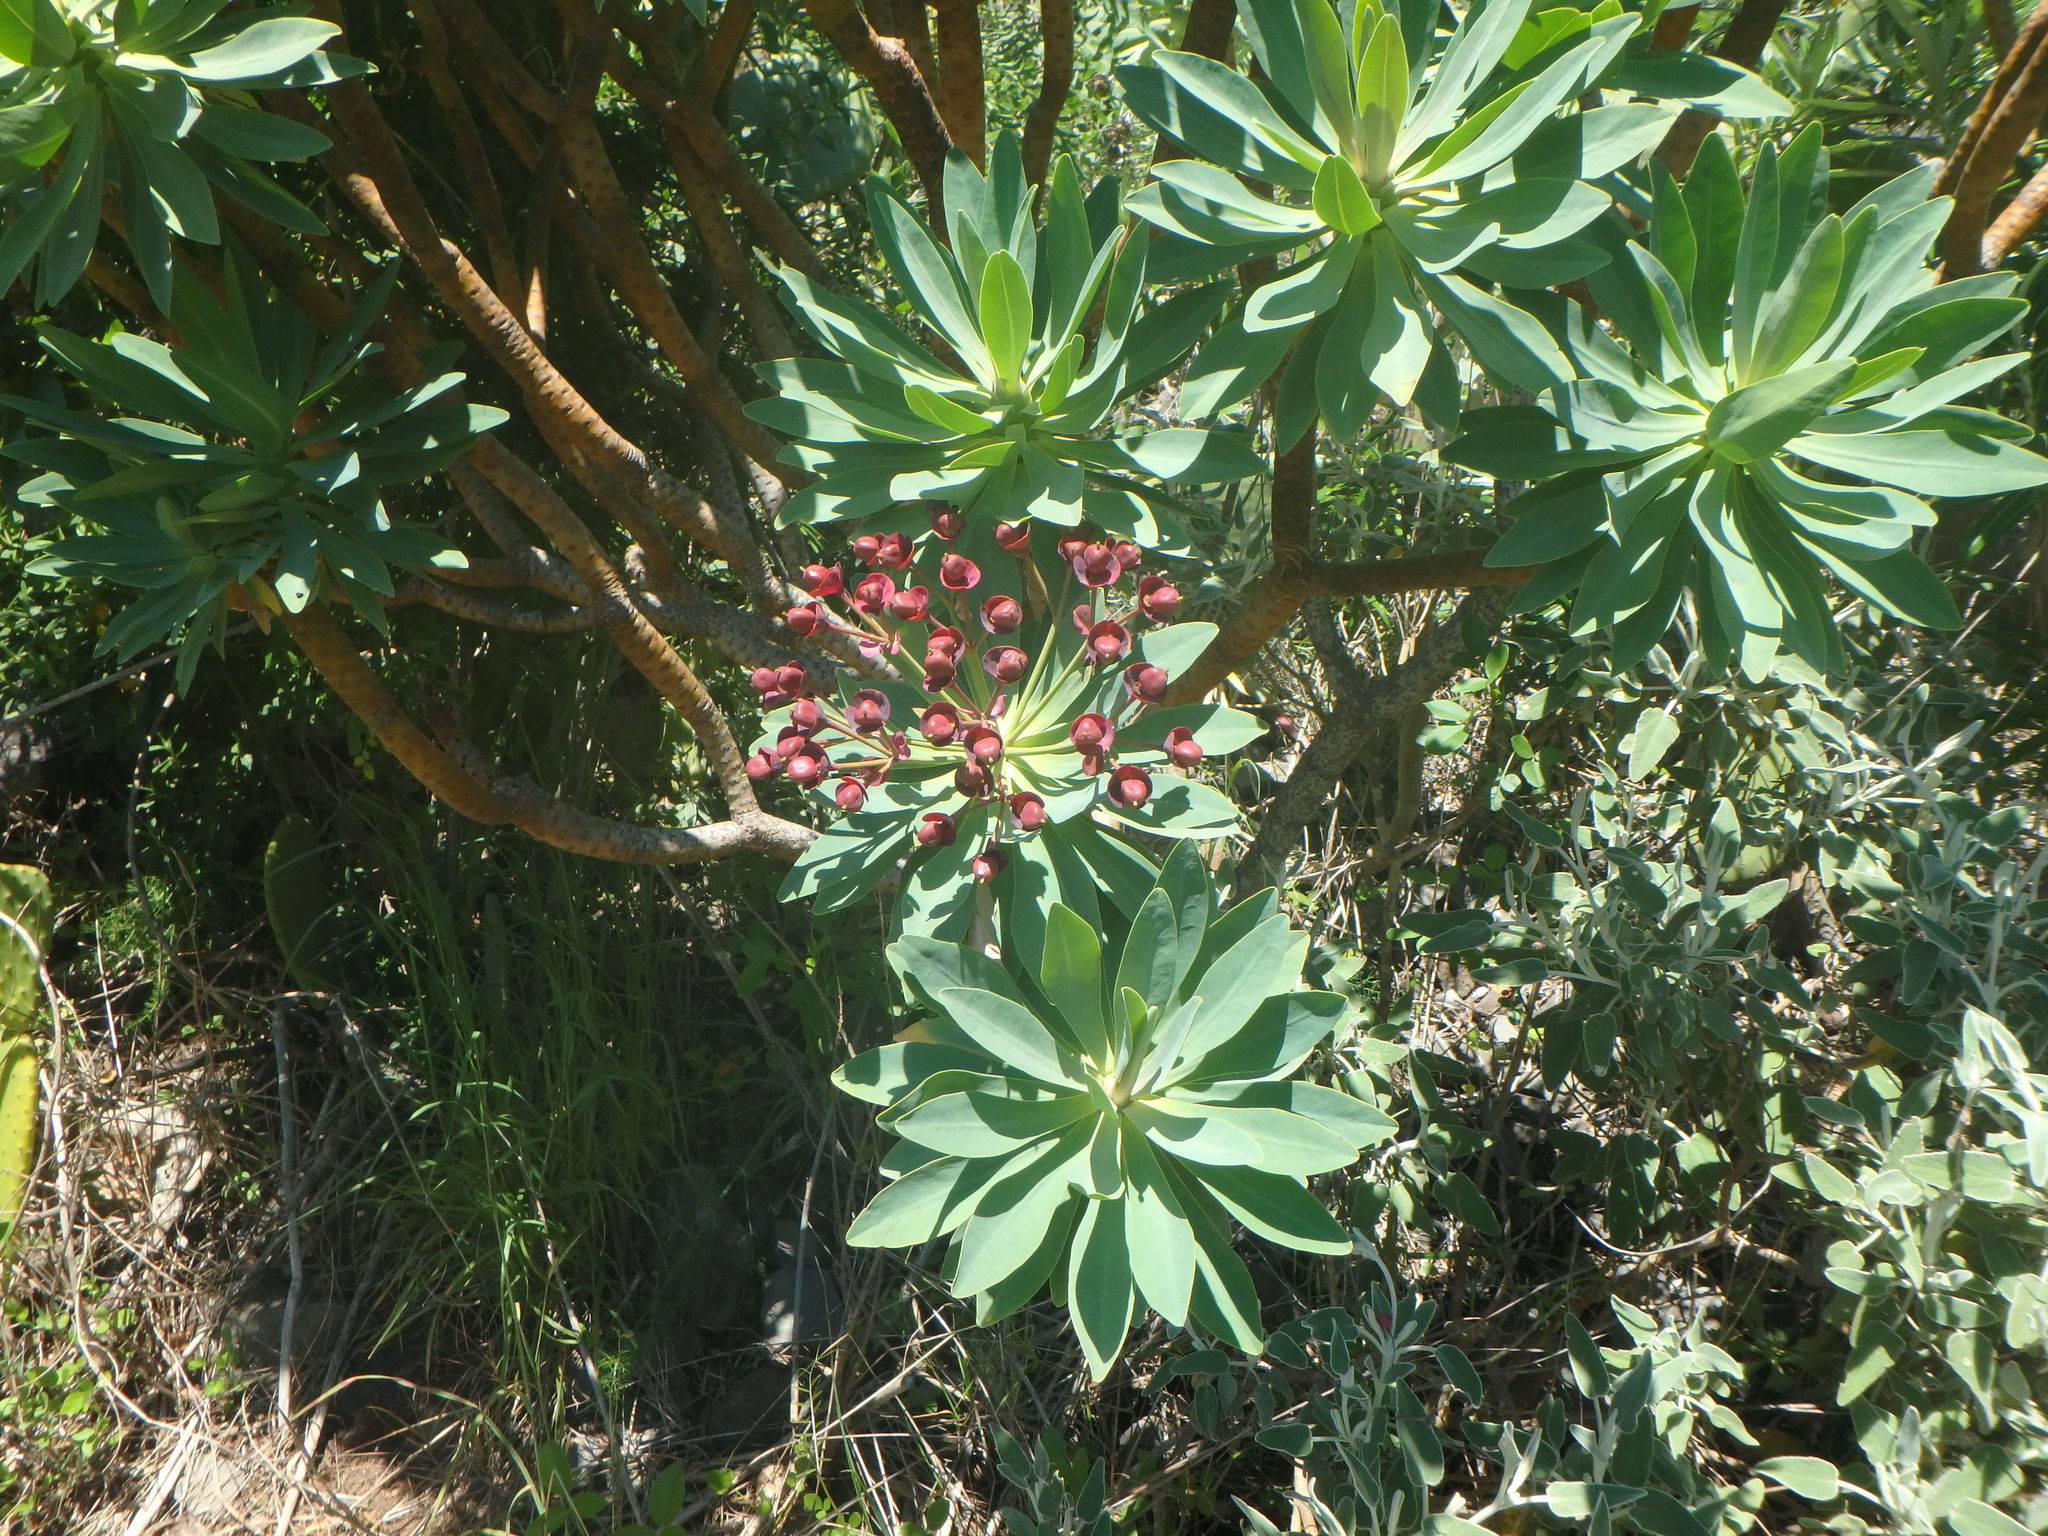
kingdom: Plantae
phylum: Tracheophyta
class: Magnoliopsida
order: Malpighiales
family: Euphorbiaceae
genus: Euphorbia
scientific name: Euphorbia atropurpurea
